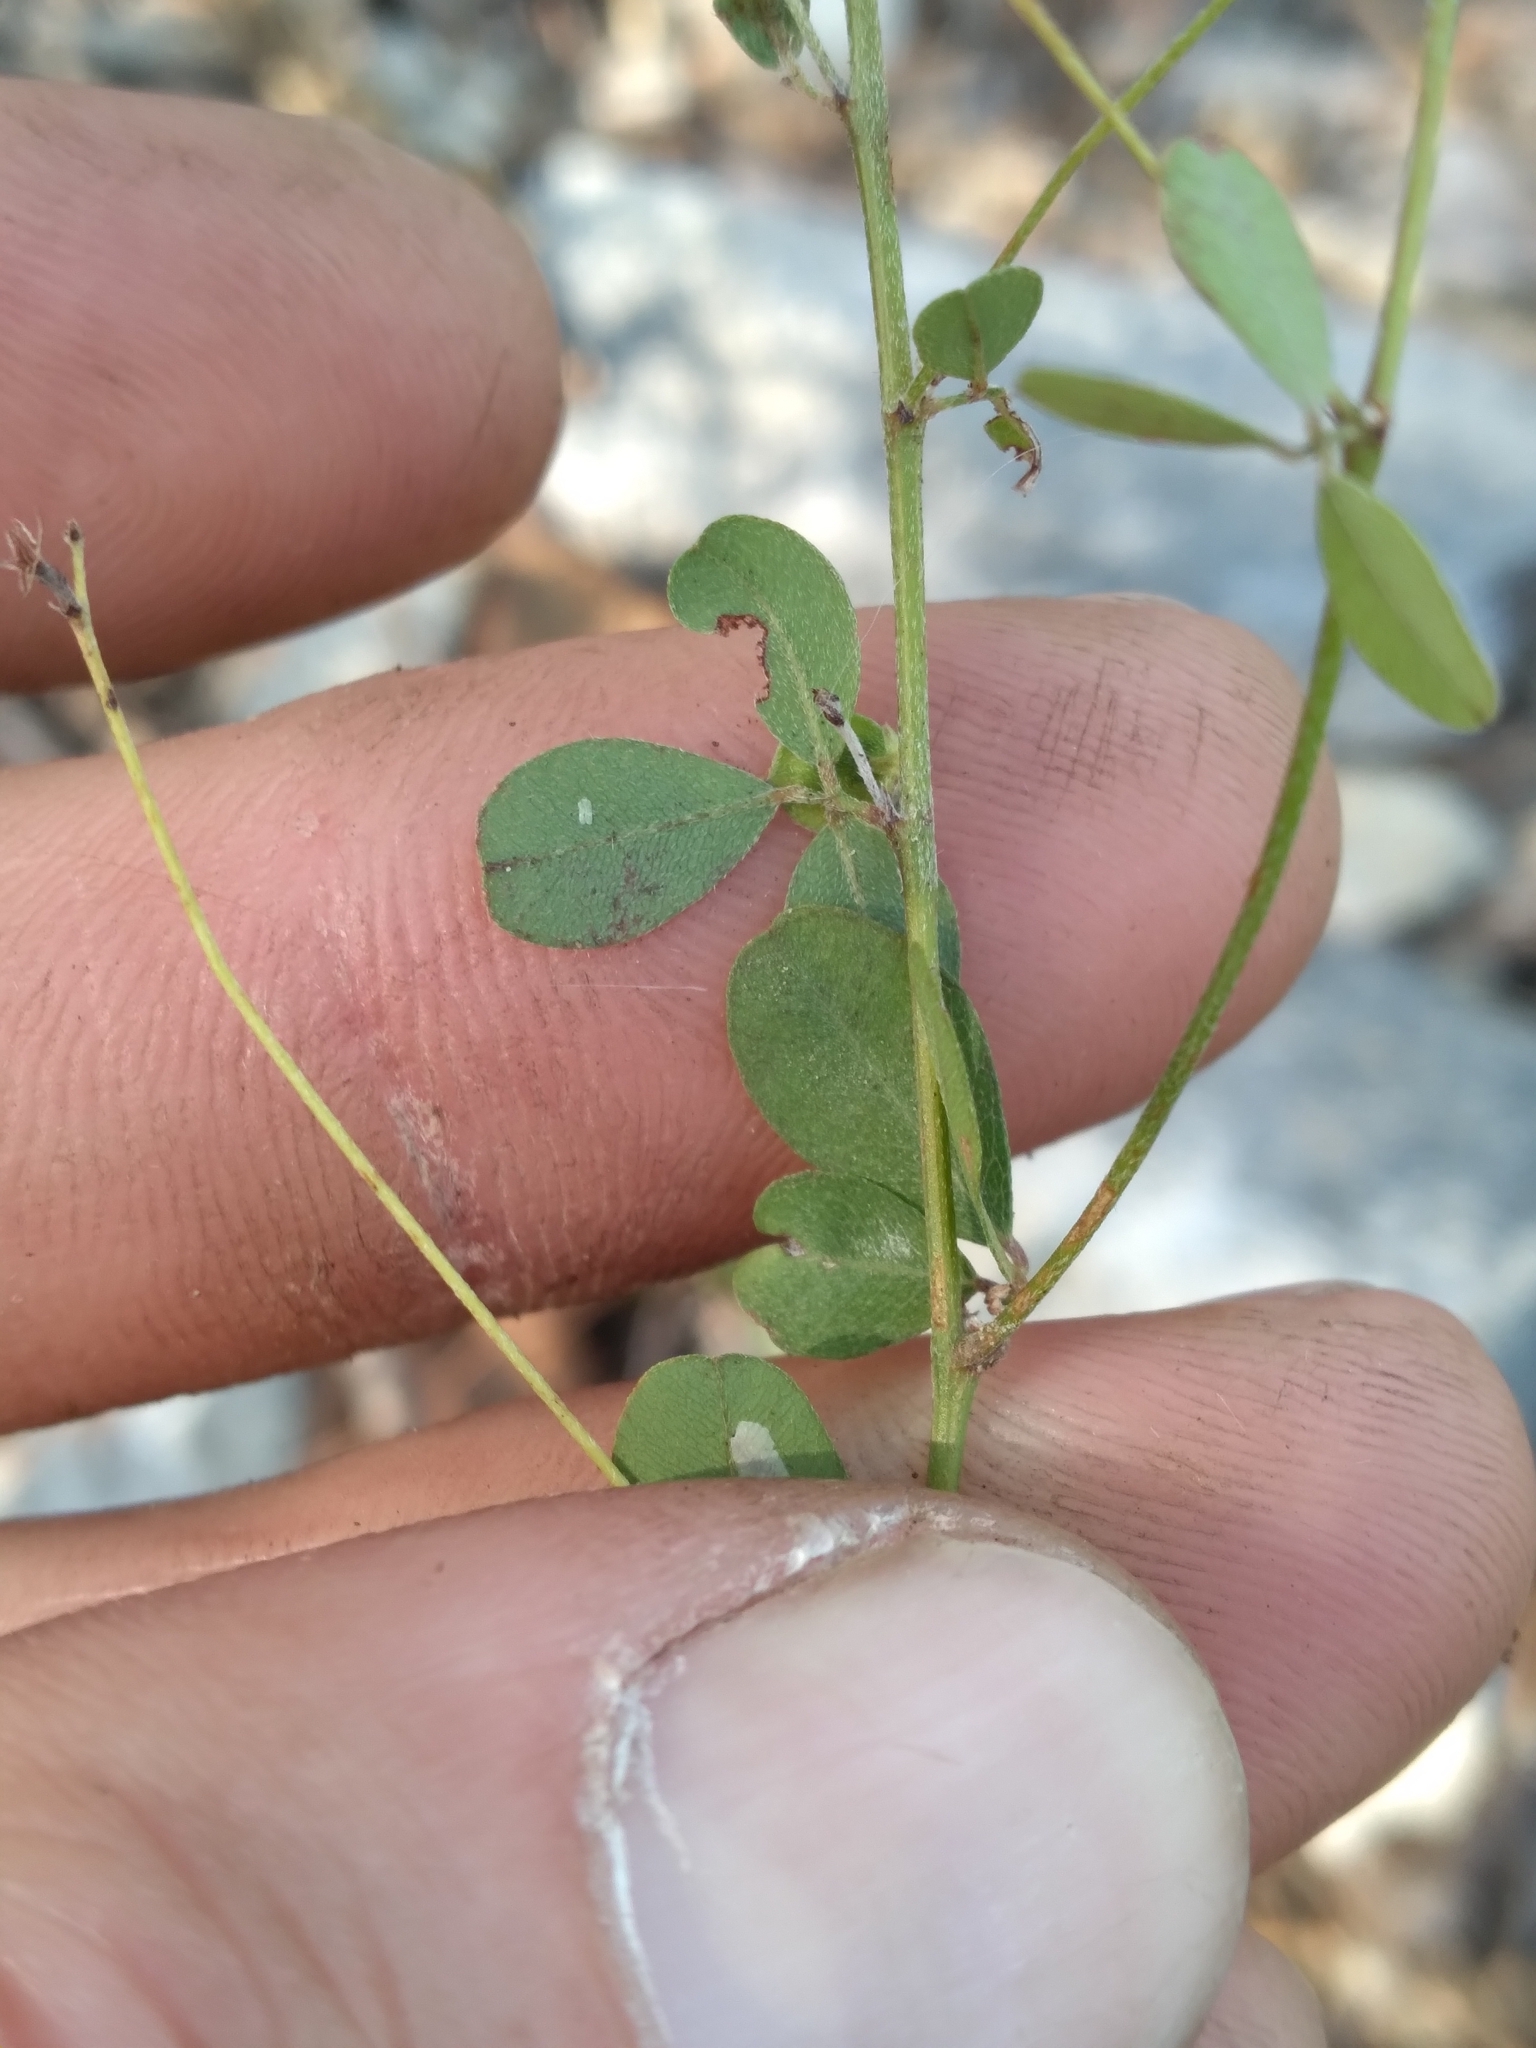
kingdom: Plantae
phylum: Tracheophyta
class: Magnoliopsida
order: Fabales
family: Fabaceae
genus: Lespedeza
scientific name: Lespedeza repens
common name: Creeping bush-clover
